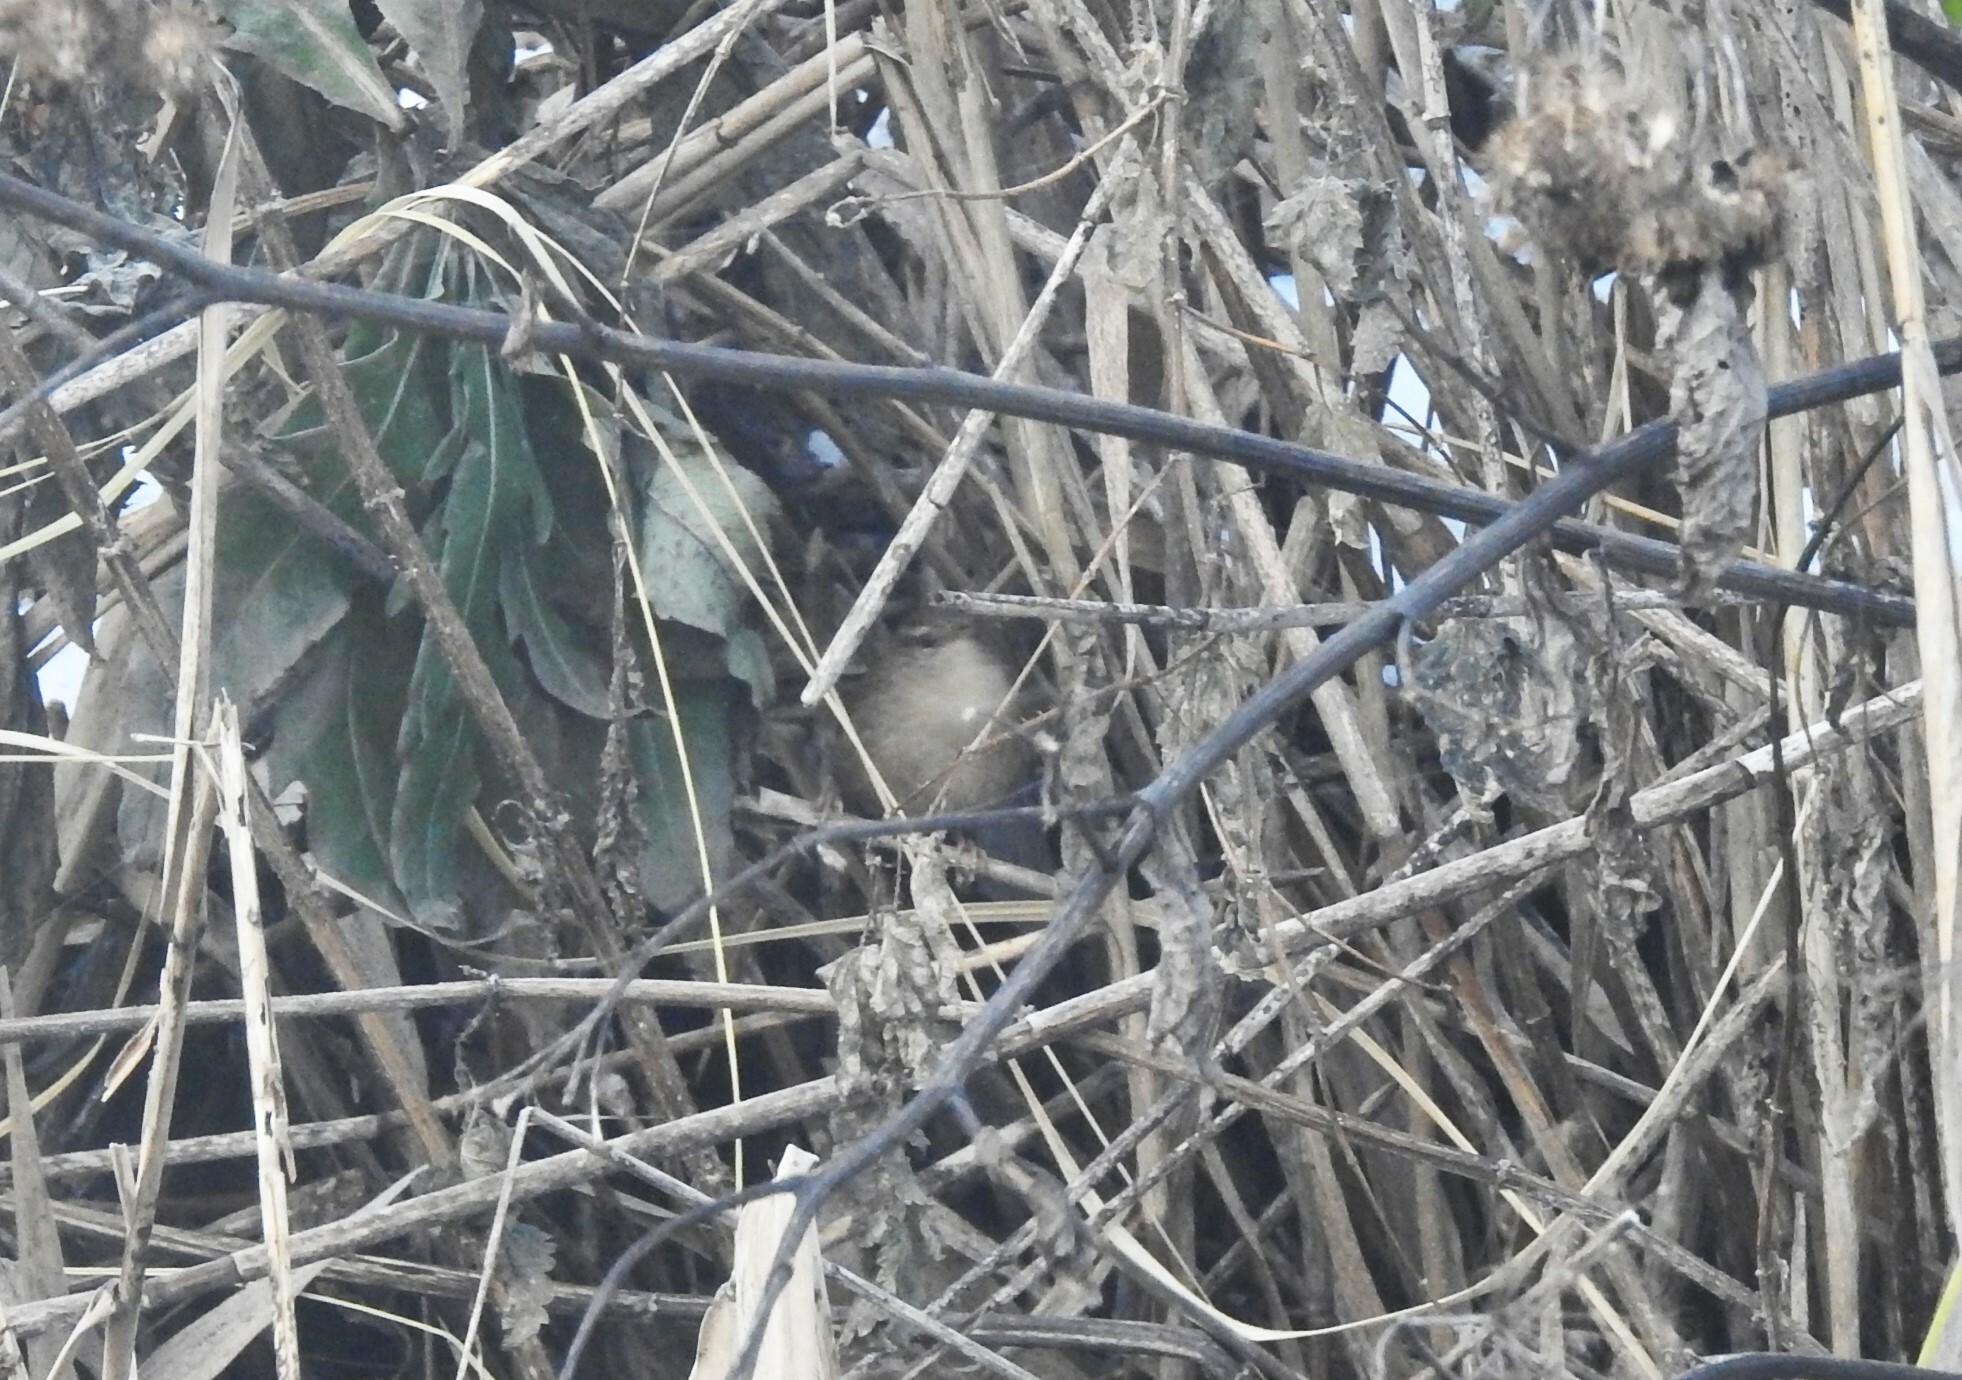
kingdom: Animalia
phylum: Chordata
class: Aves
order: Passeriformes
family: Troglodytidae
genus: Troglodytes
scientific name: Troglodytes troglodytes
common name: Eurasian wren
